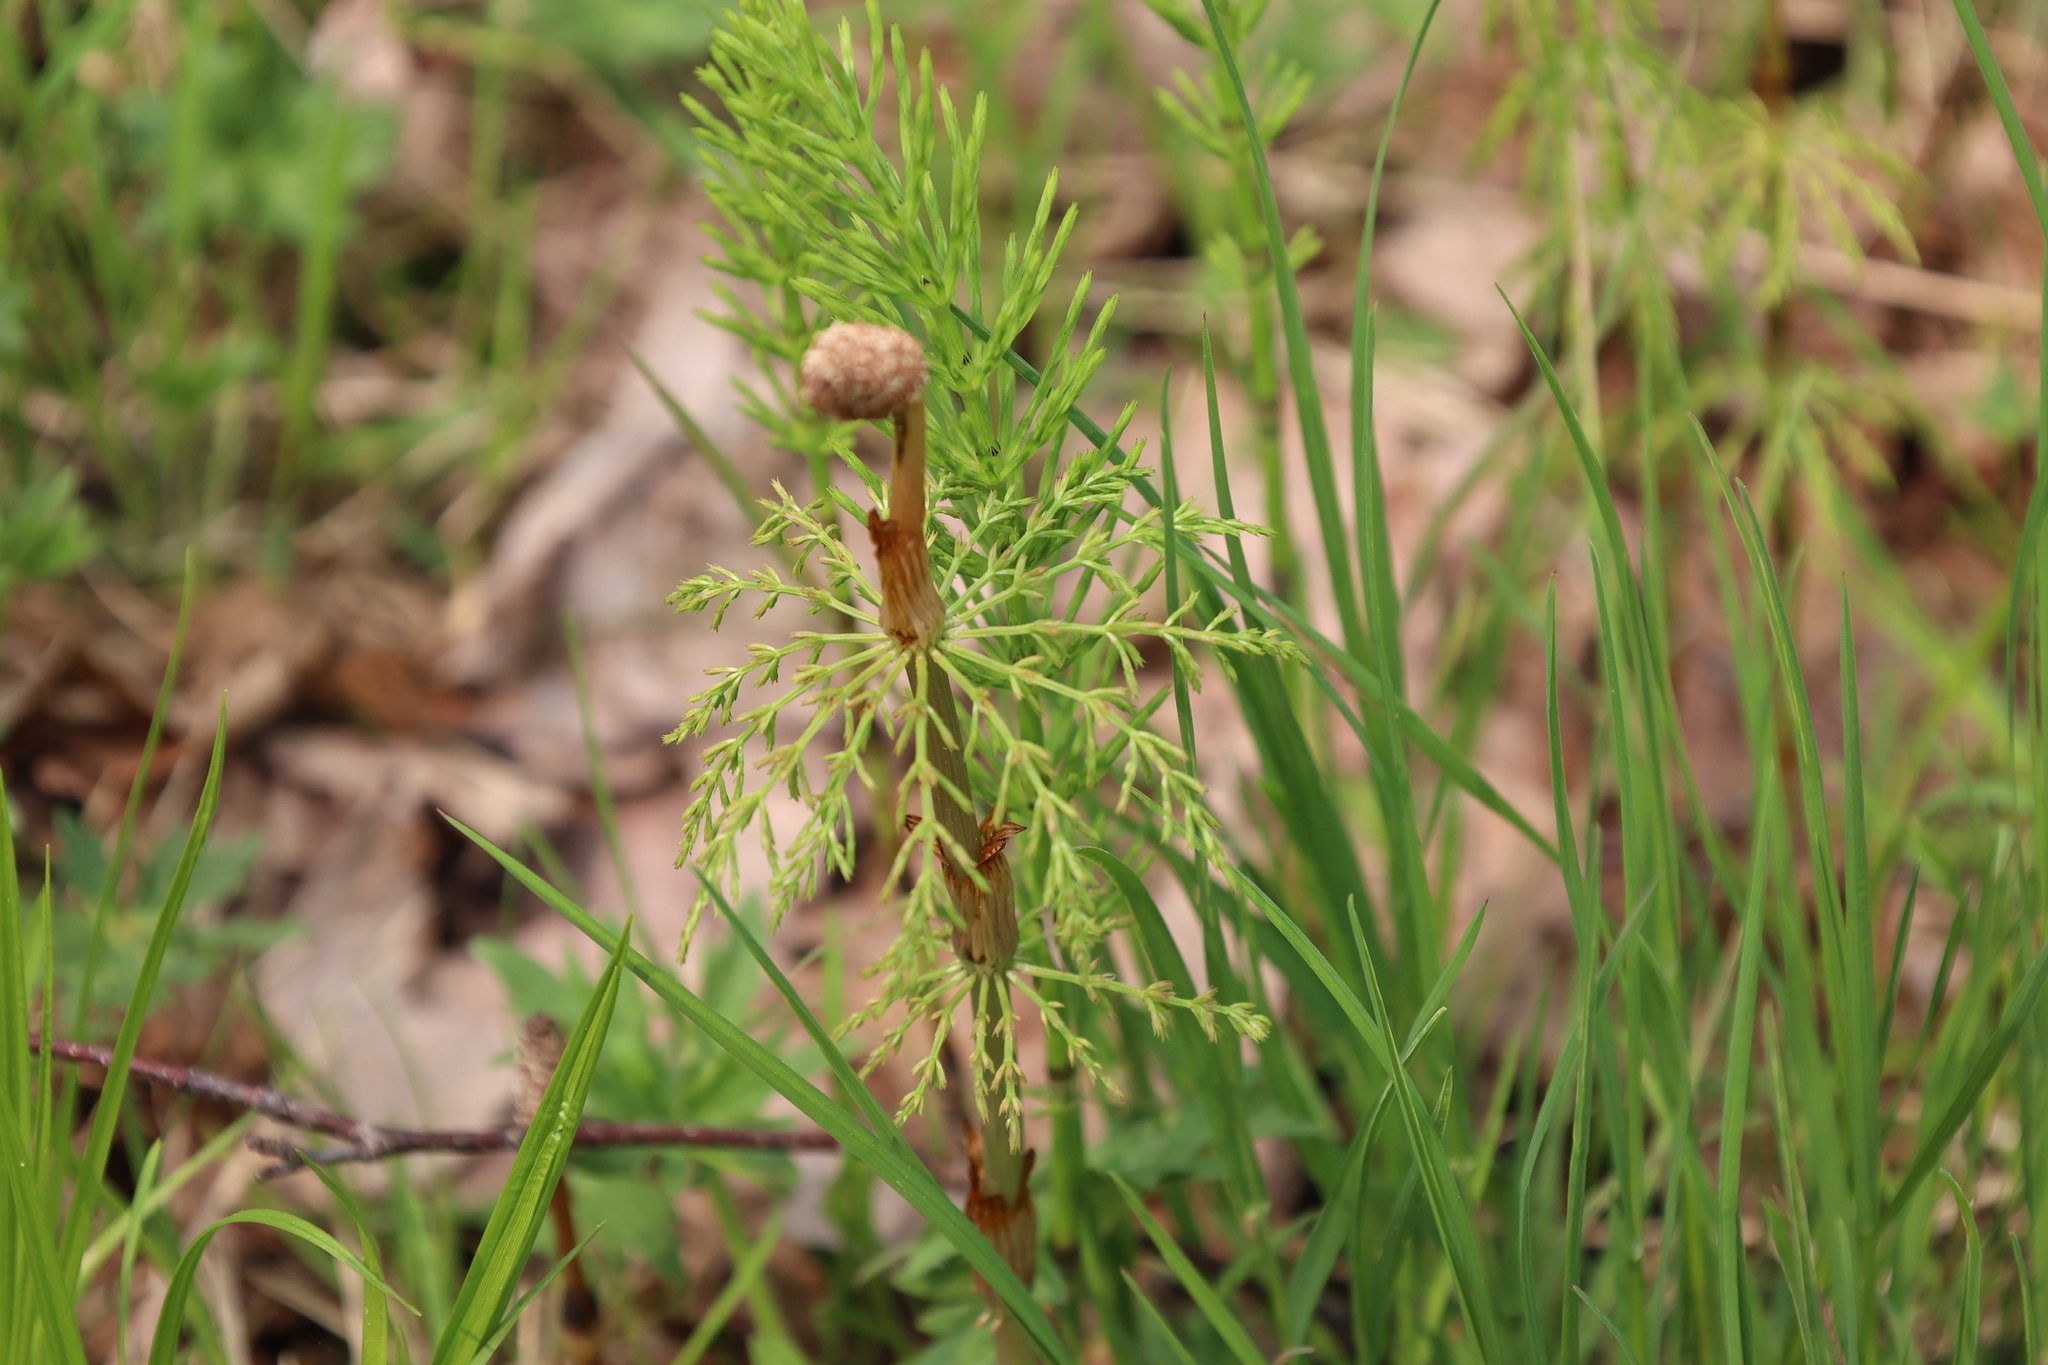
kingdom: Plantae
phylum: Tracheophyta
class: Polypodiopsida
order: Equisetales
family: Equisetaceae
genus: Equisetum
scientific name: Equisetum sylvaticum
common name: Wood horsetail
